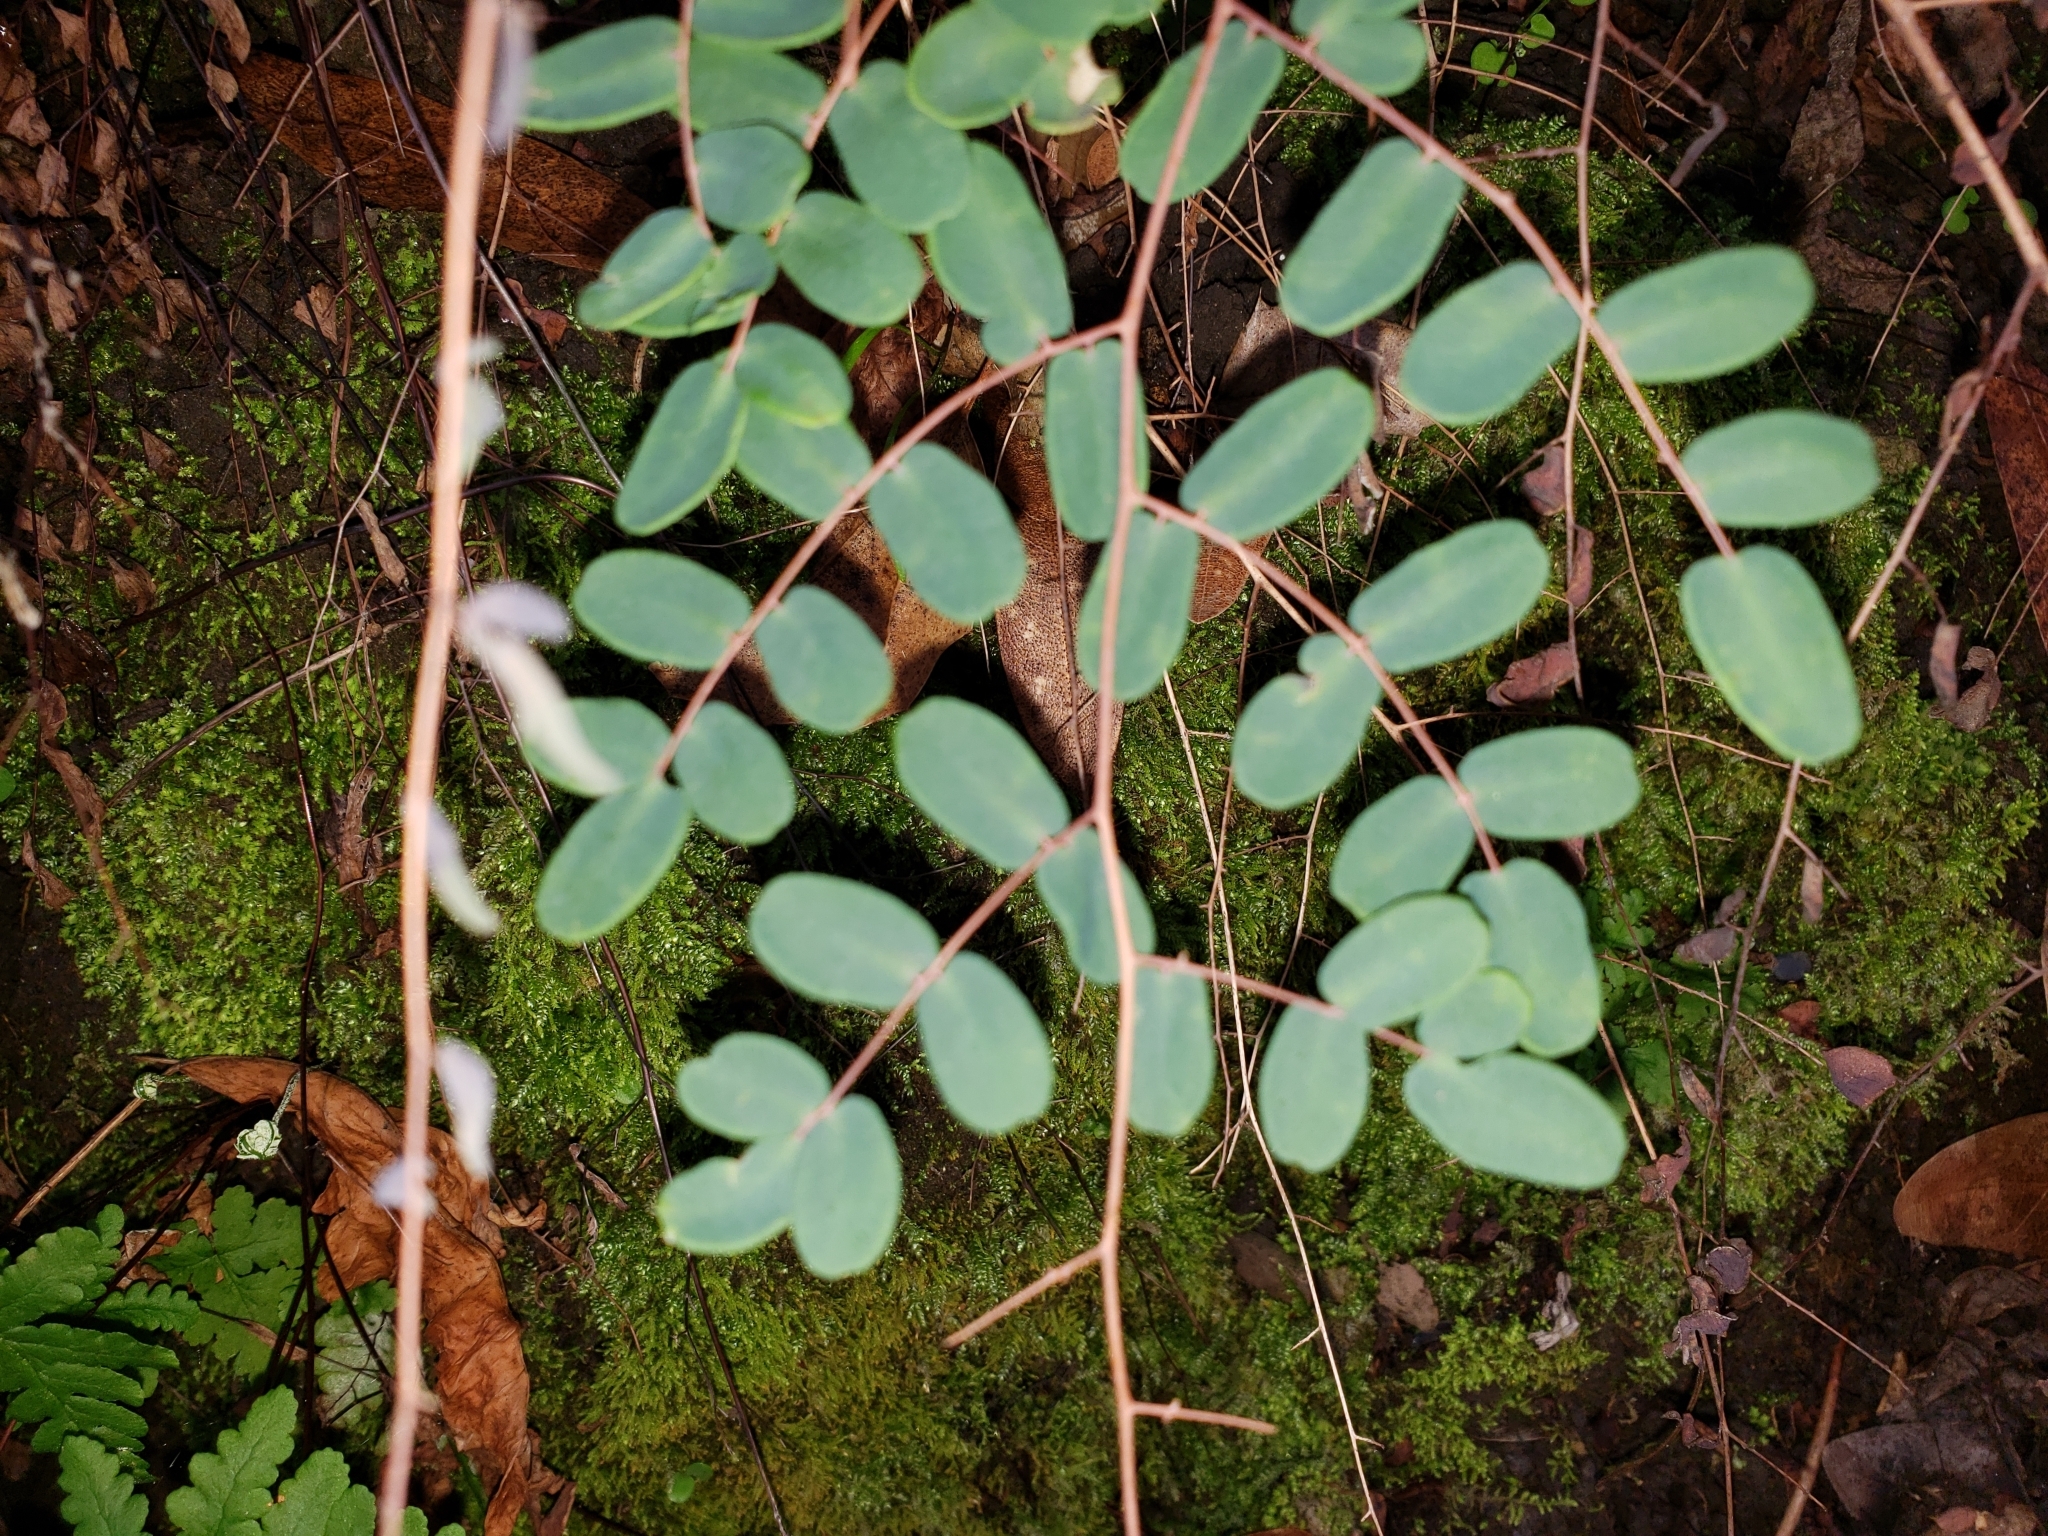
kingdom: Plantae
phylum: Tracheophyta
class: Polypodiopsida
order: Polypodiales
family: Pteridaceae
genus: Pellaea
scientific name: Pellaea andromedifolia
